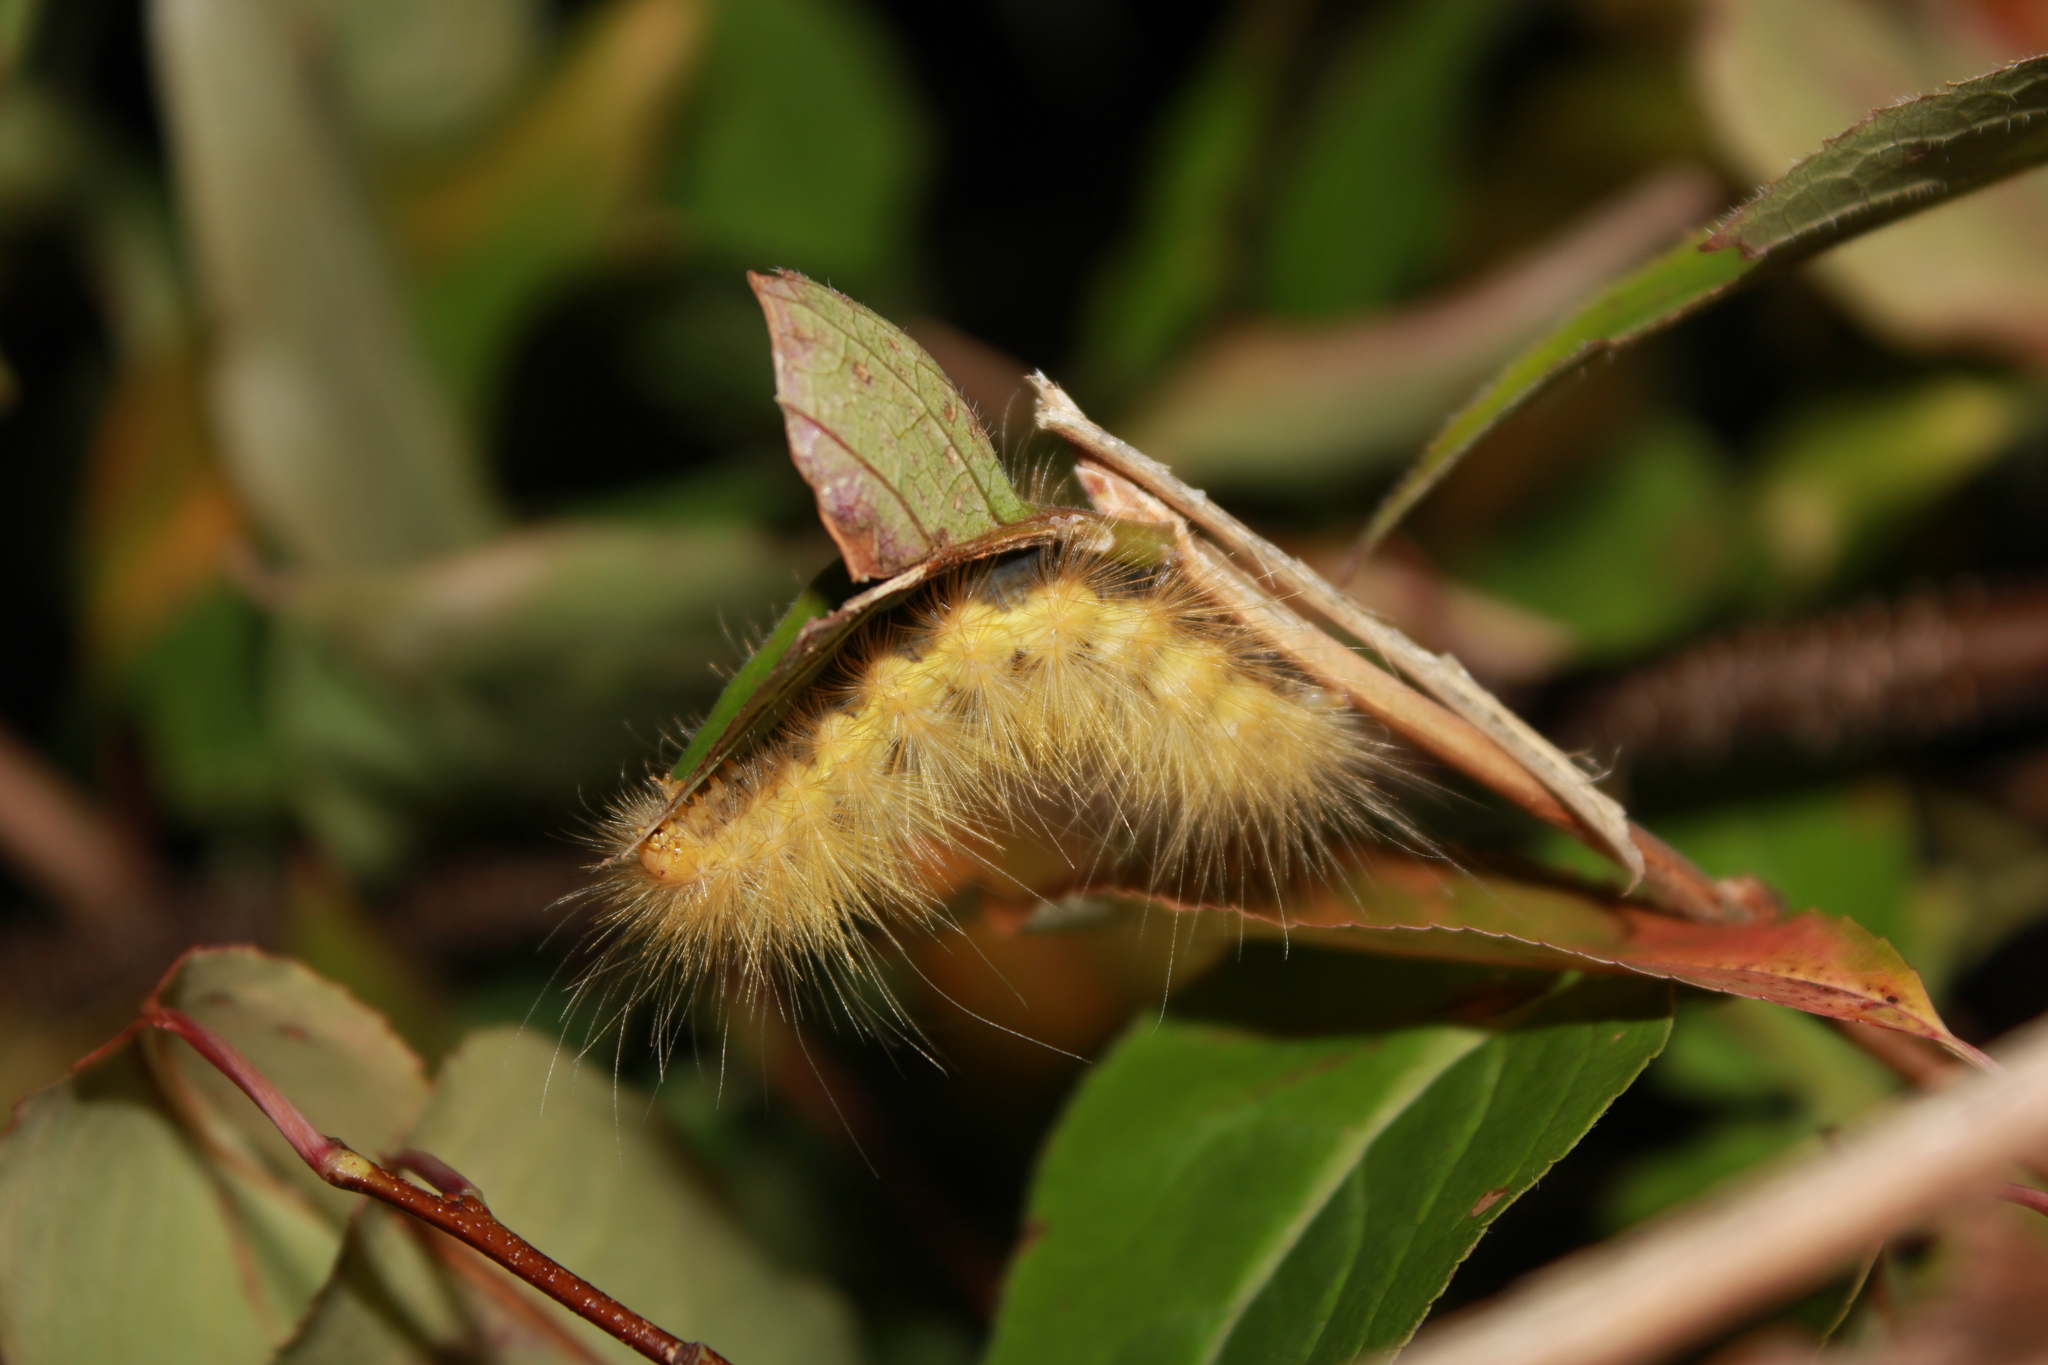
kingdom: Animalia
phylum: Arthropoda
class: Insecta
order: Lepidoptera
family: Erebidae
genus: Spilosoma
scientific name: Spilosoma virginica
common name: Virginia tiger moth
